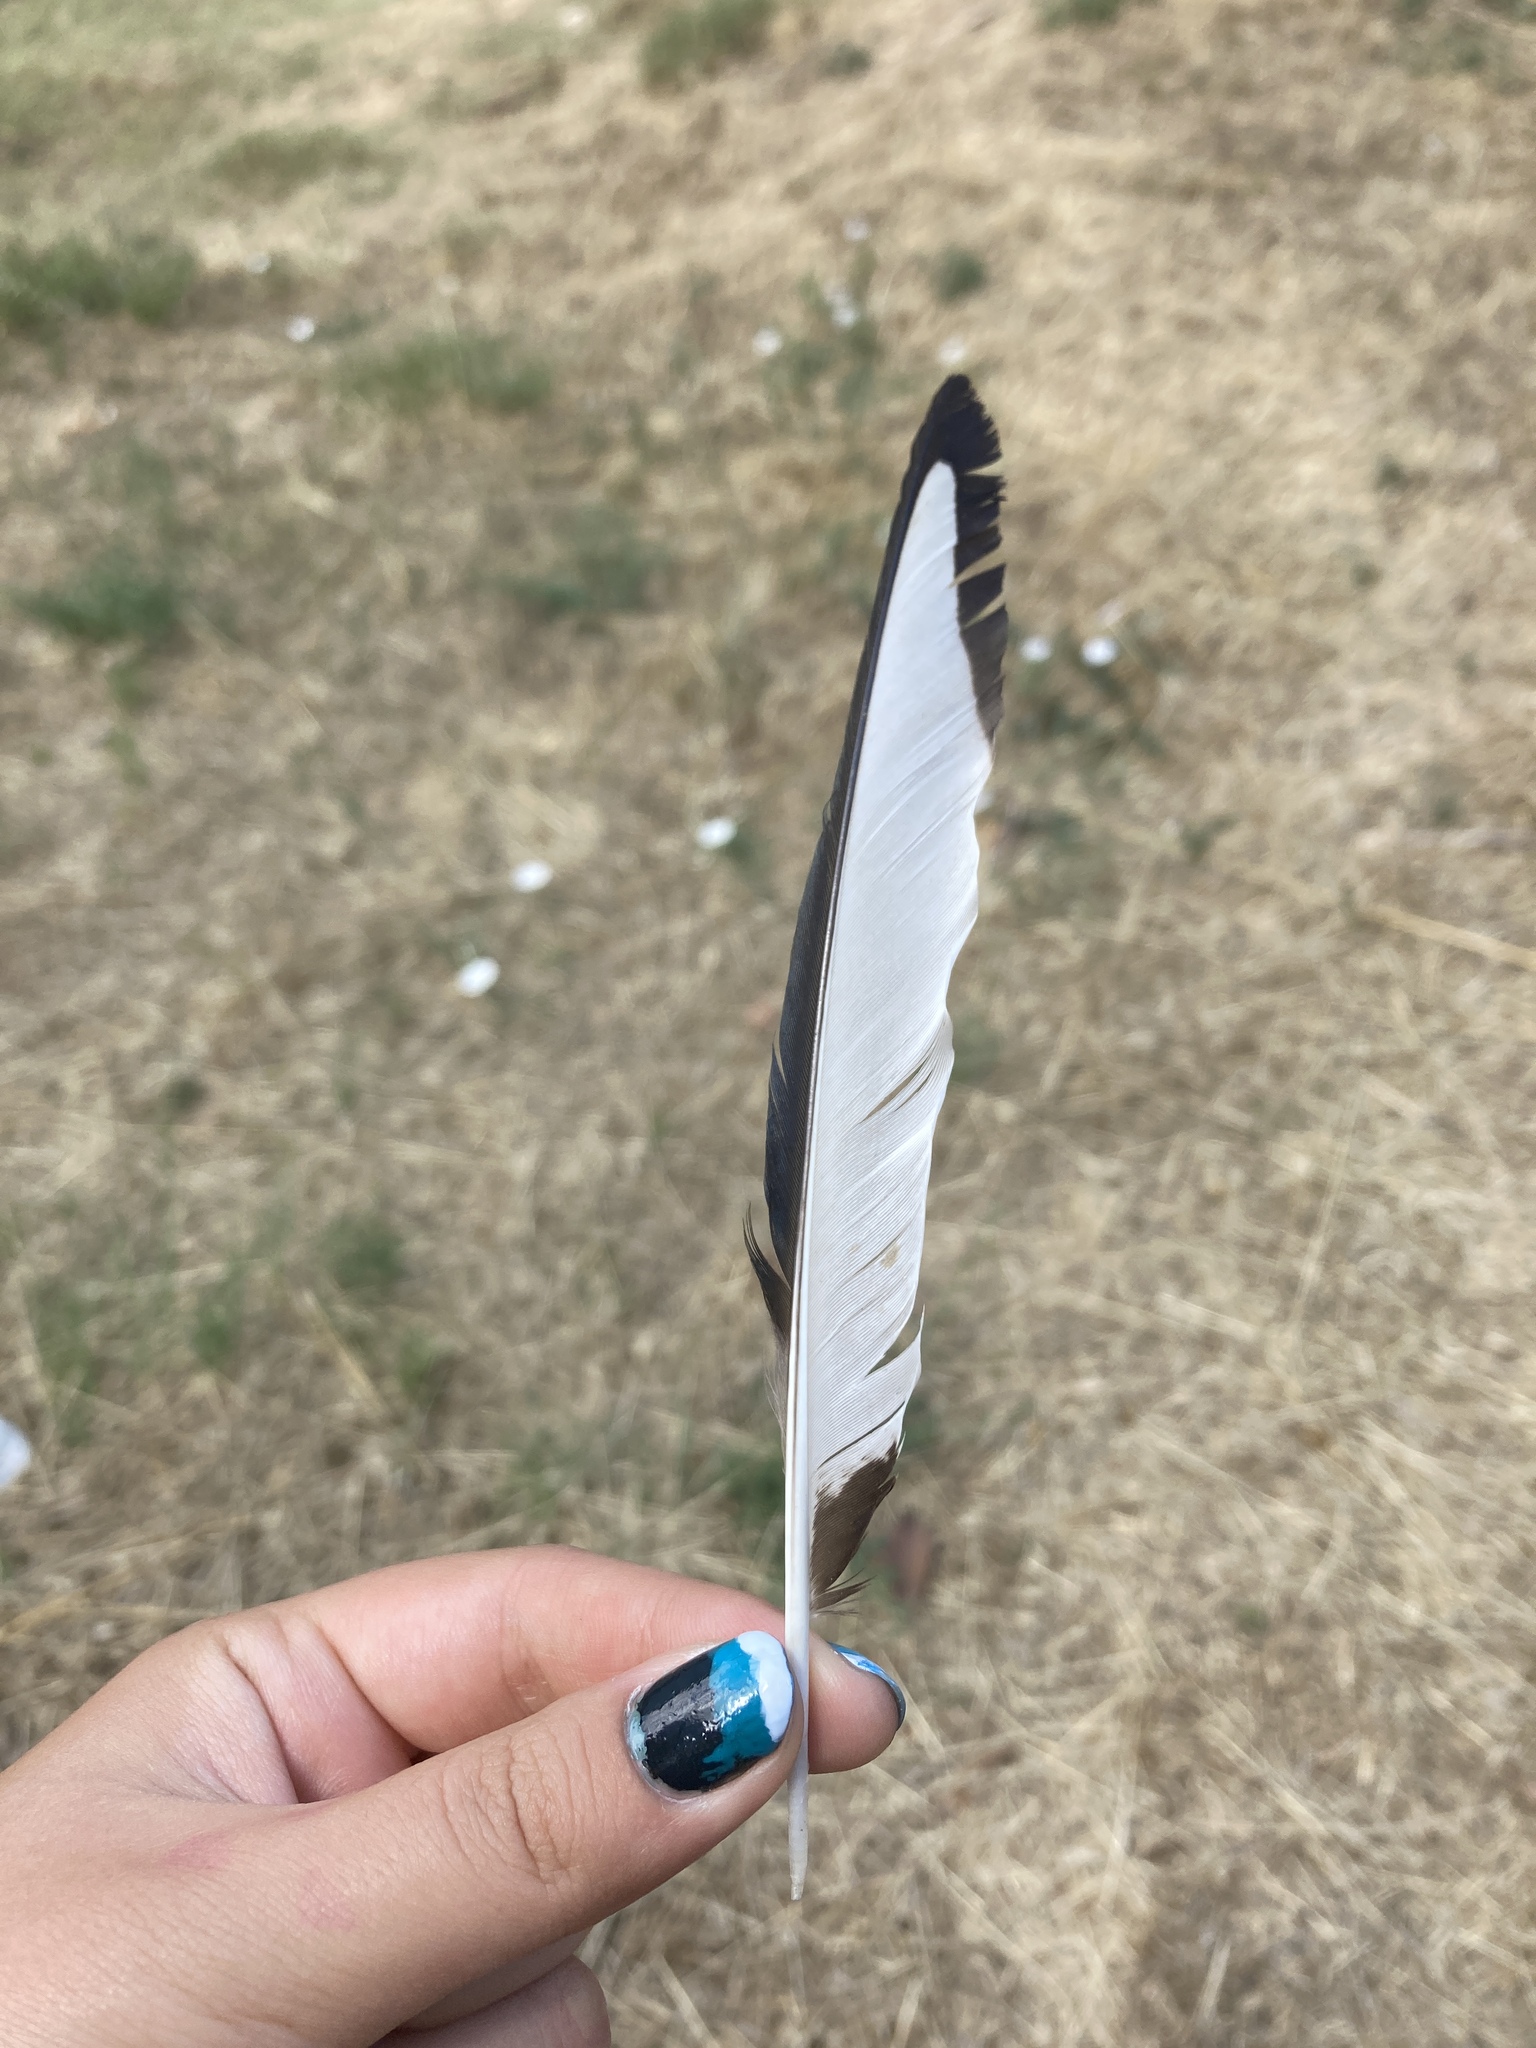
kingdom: Animalia
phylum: Chordata
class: Aves
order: Passeriformes
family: Corvidae
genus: Pica
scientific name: Pica pica
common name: Eurasian magpie
